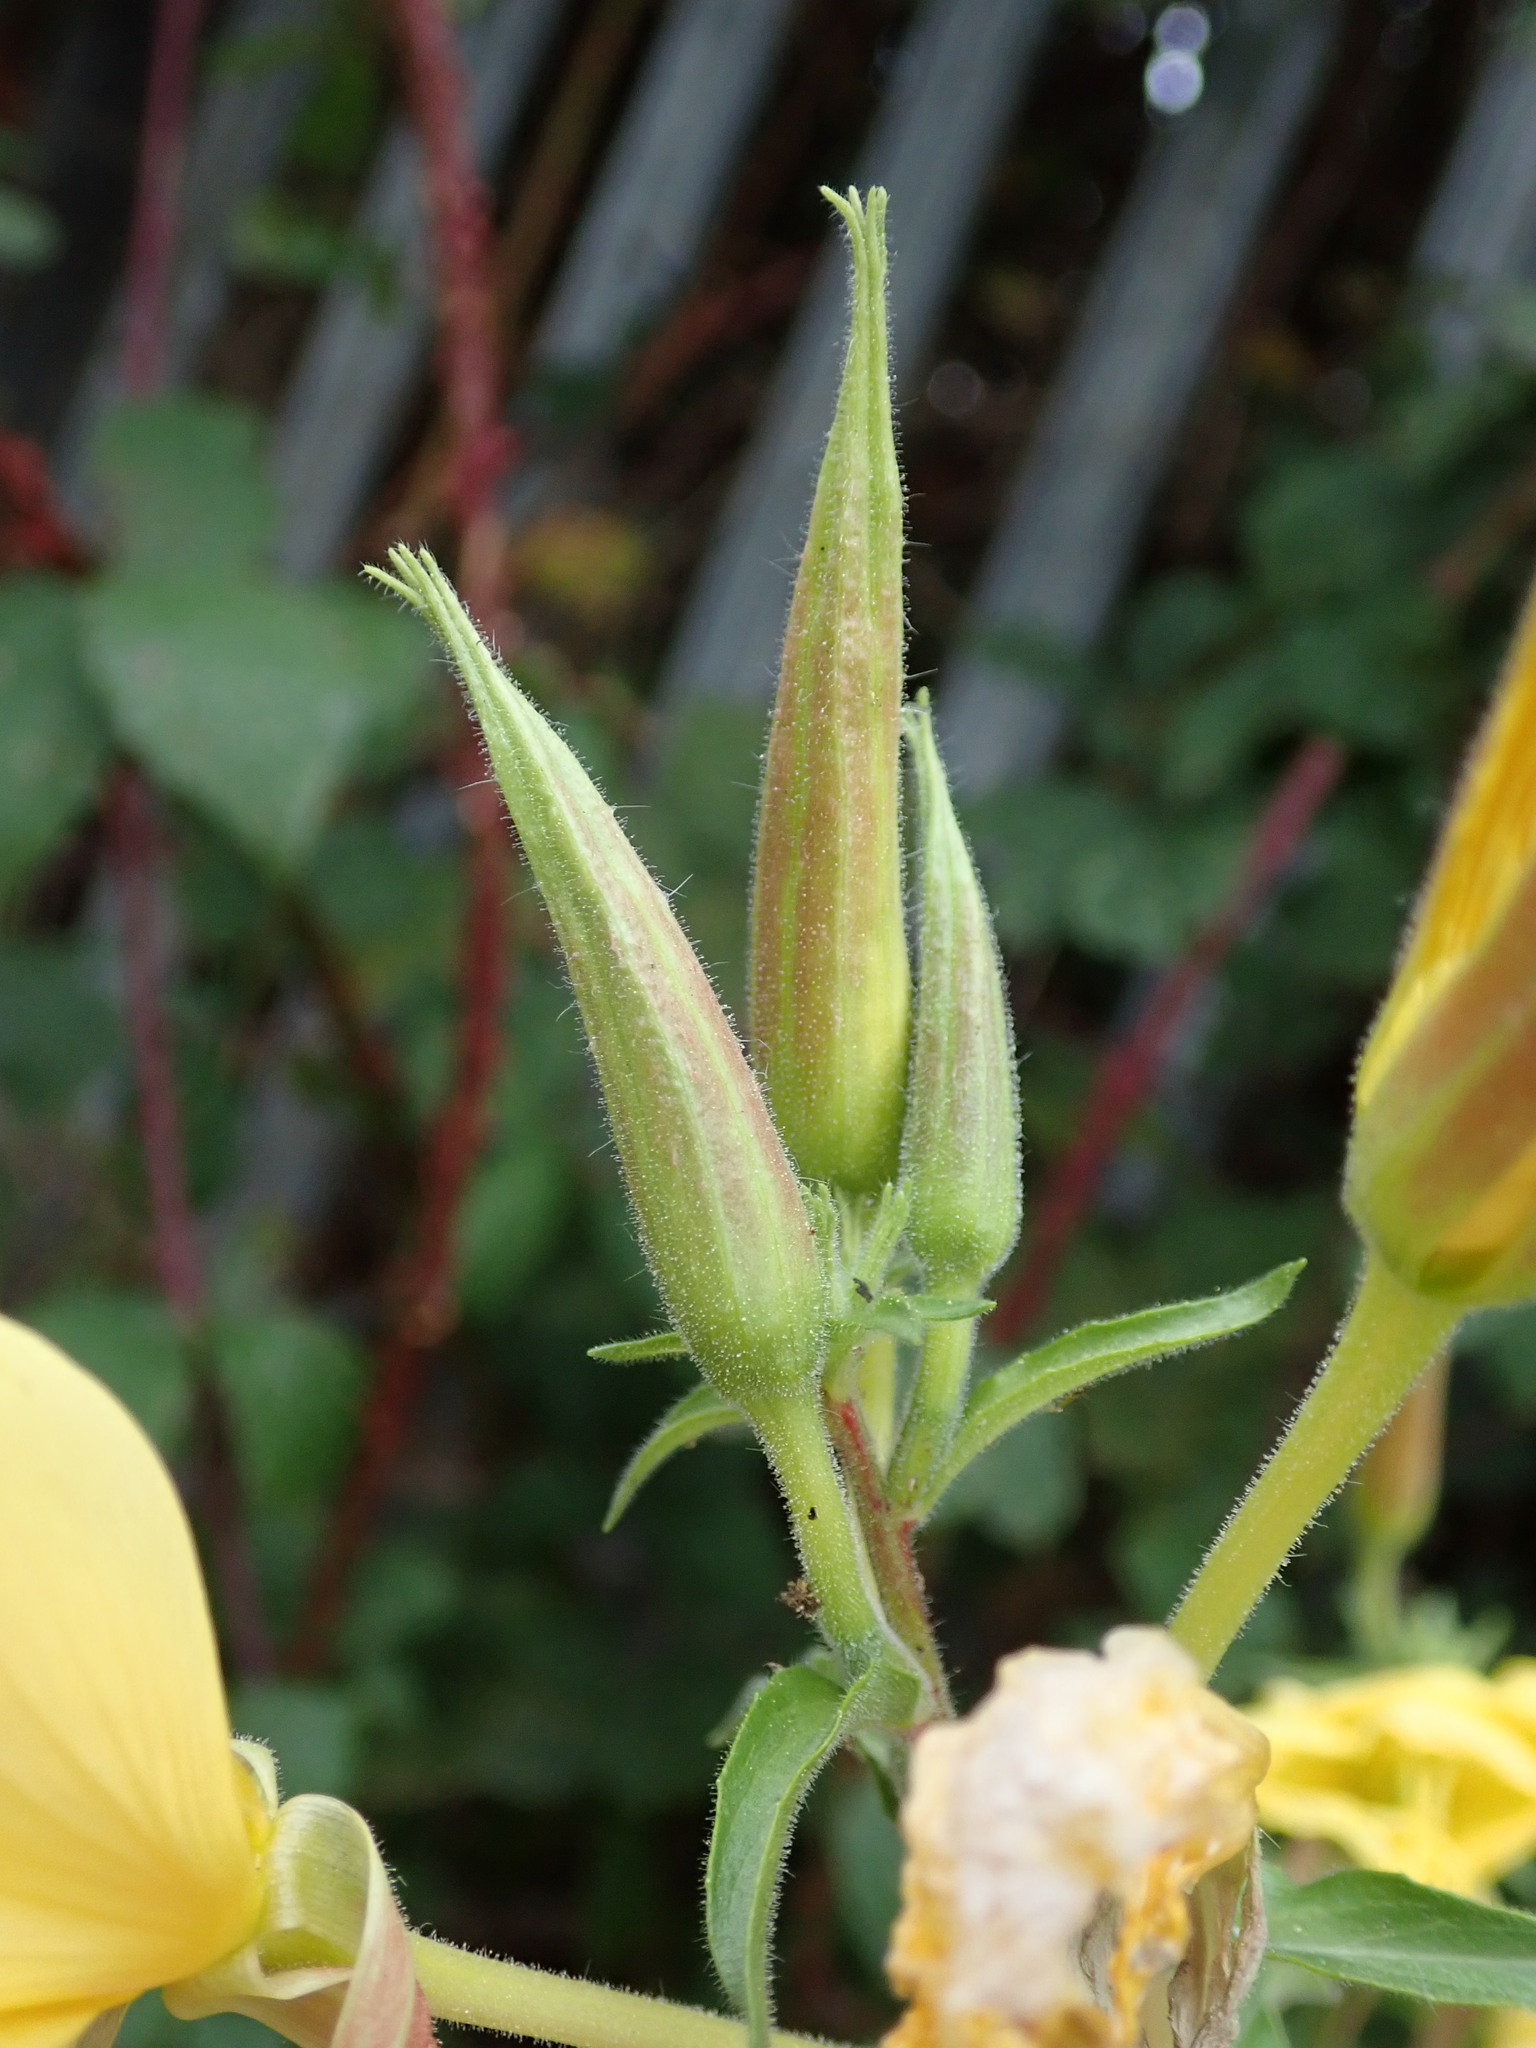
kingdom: Plantae
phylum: Tracheophyta
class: Magnoliopsida
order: Myrtales
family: Onagraceae
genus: Oenothera
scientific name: Oenothera glazioviana
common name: Large-flowered evening-primrose
